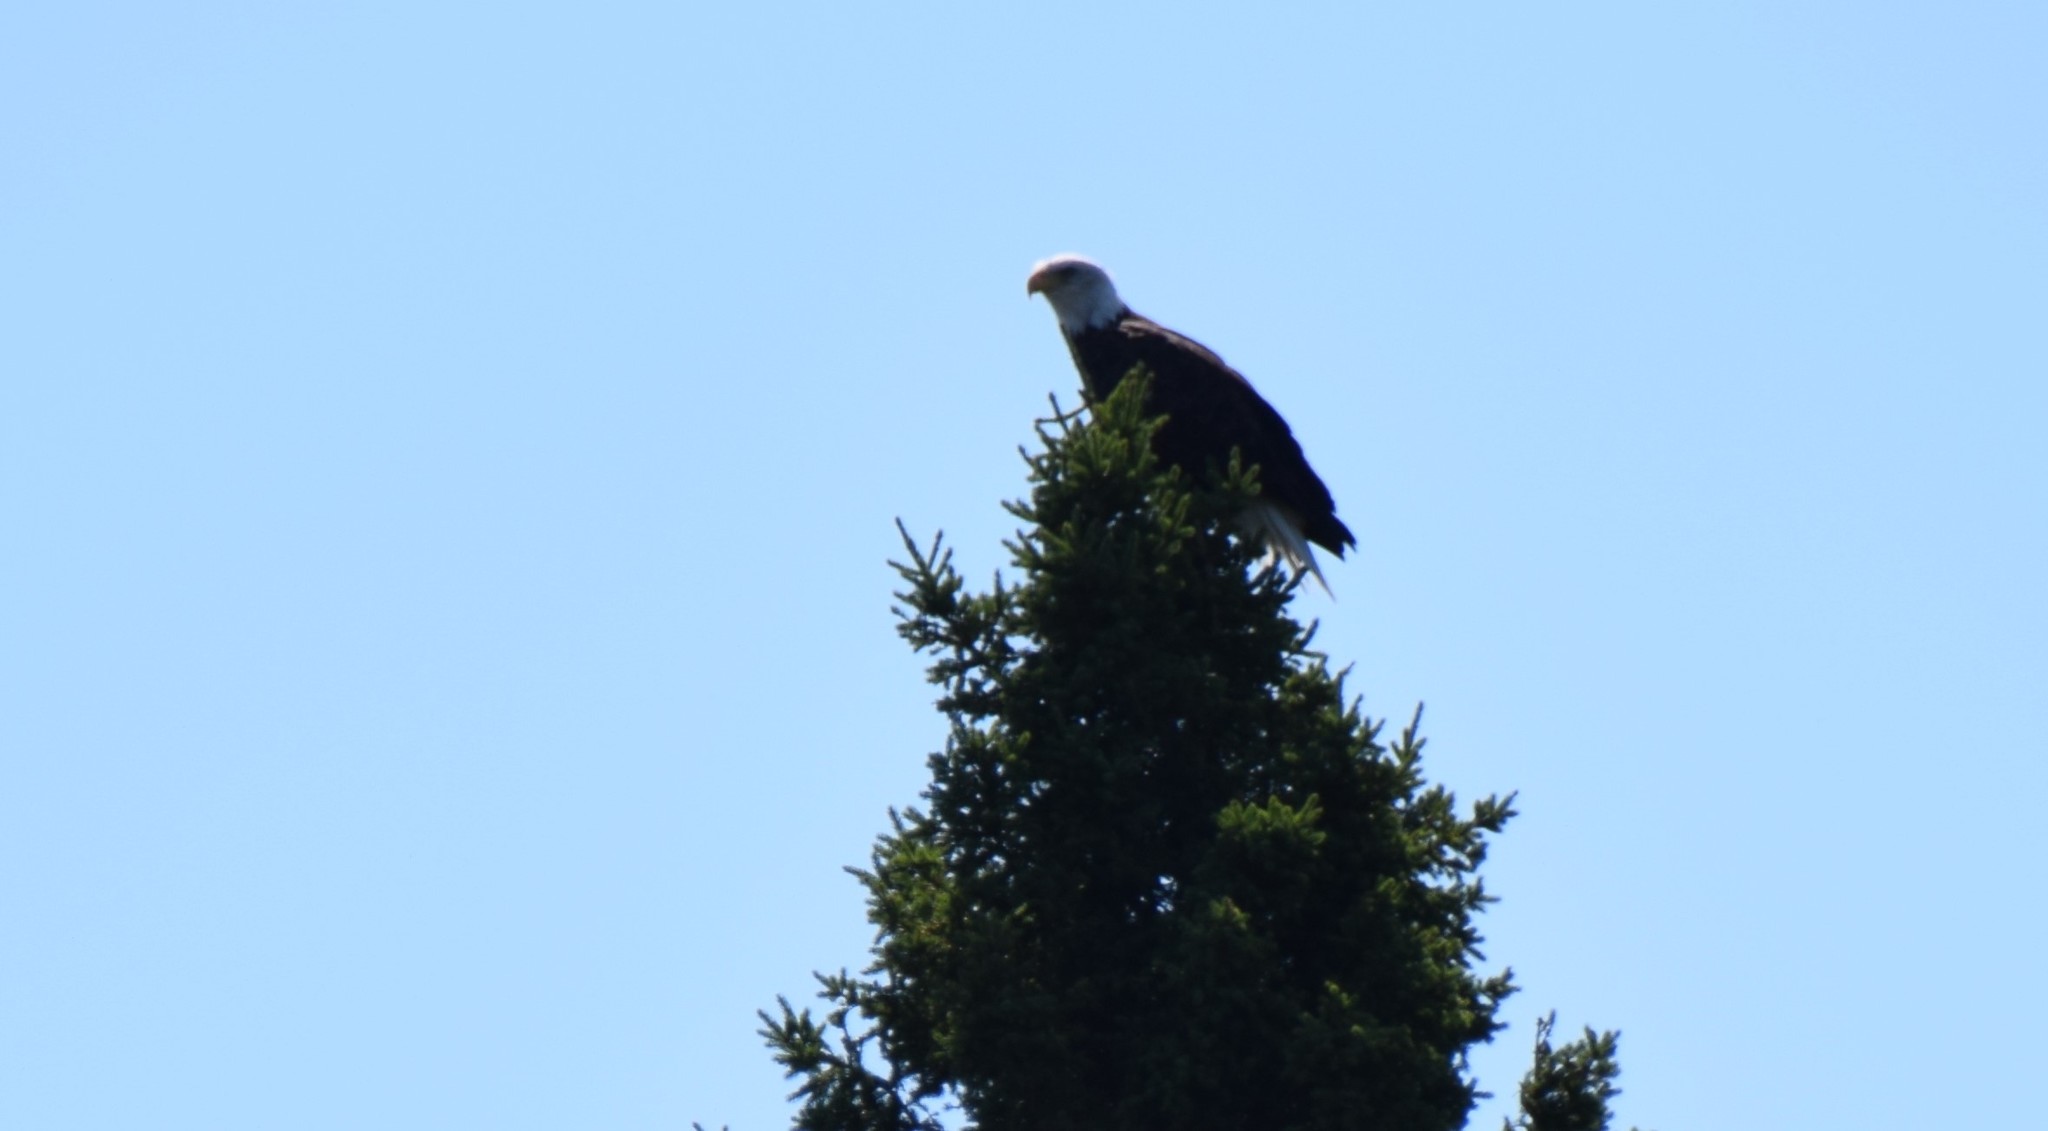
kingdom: Animalia
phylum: Chordata
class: Aves
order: Accipitriformes
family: Accipitridae
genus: Haliaeetus
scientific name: Haliaeetus leucocephalus
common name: Bald eagle
